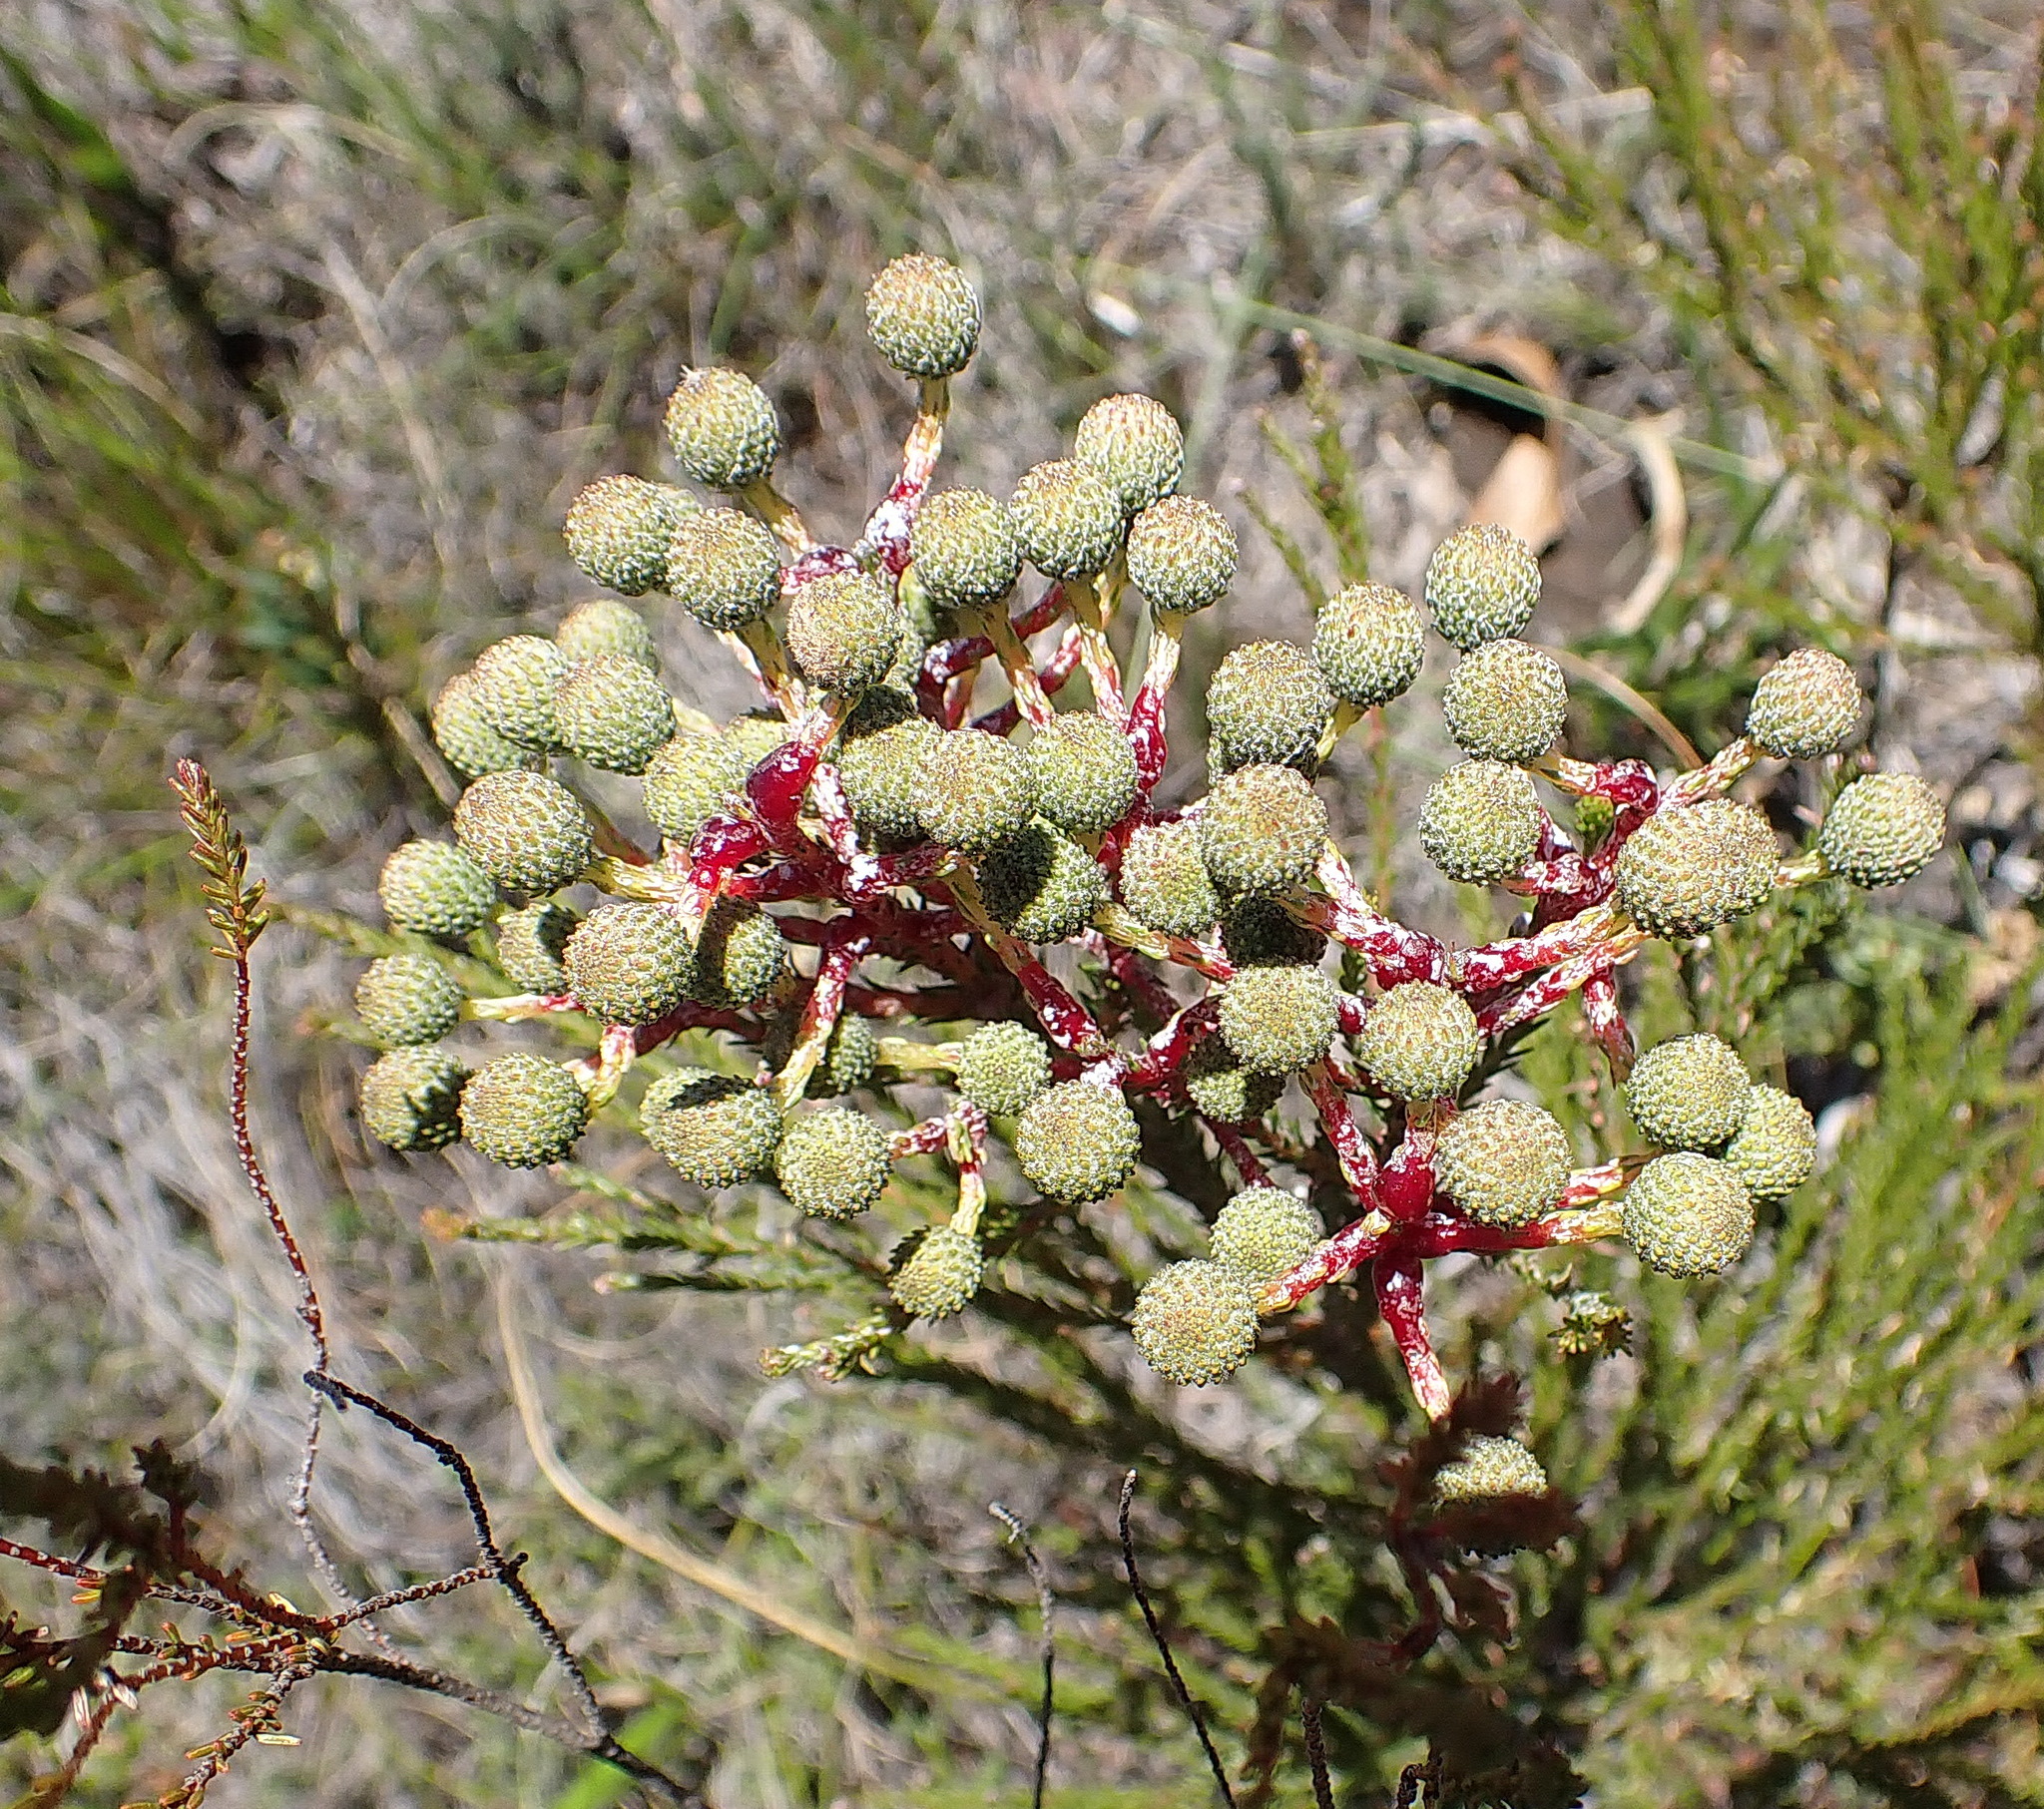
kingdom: Plantae
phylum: Tracheophyta
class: Magnoliopsida
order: Bruniales
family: Bruniaceae
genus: Berzelia
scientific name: Berzelia intermedia
